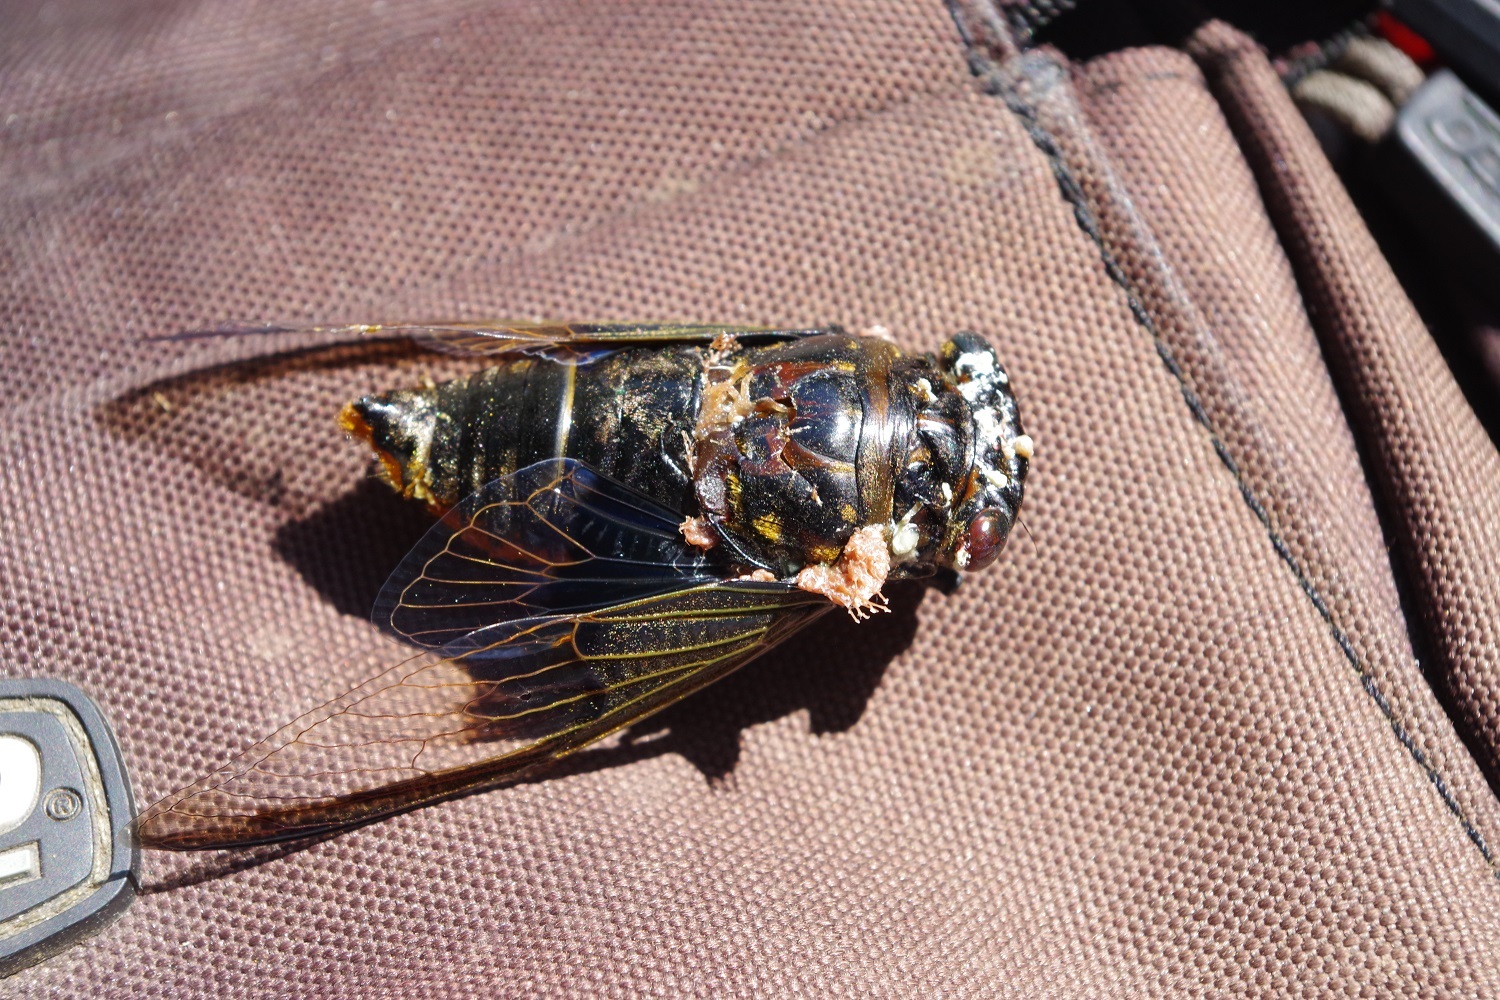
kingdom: Animalia
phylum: Arthropoda
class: Insecta
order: Hemiptera
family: Cicadidae
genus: Cryptotympana
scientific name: Cryptotympana aquila
